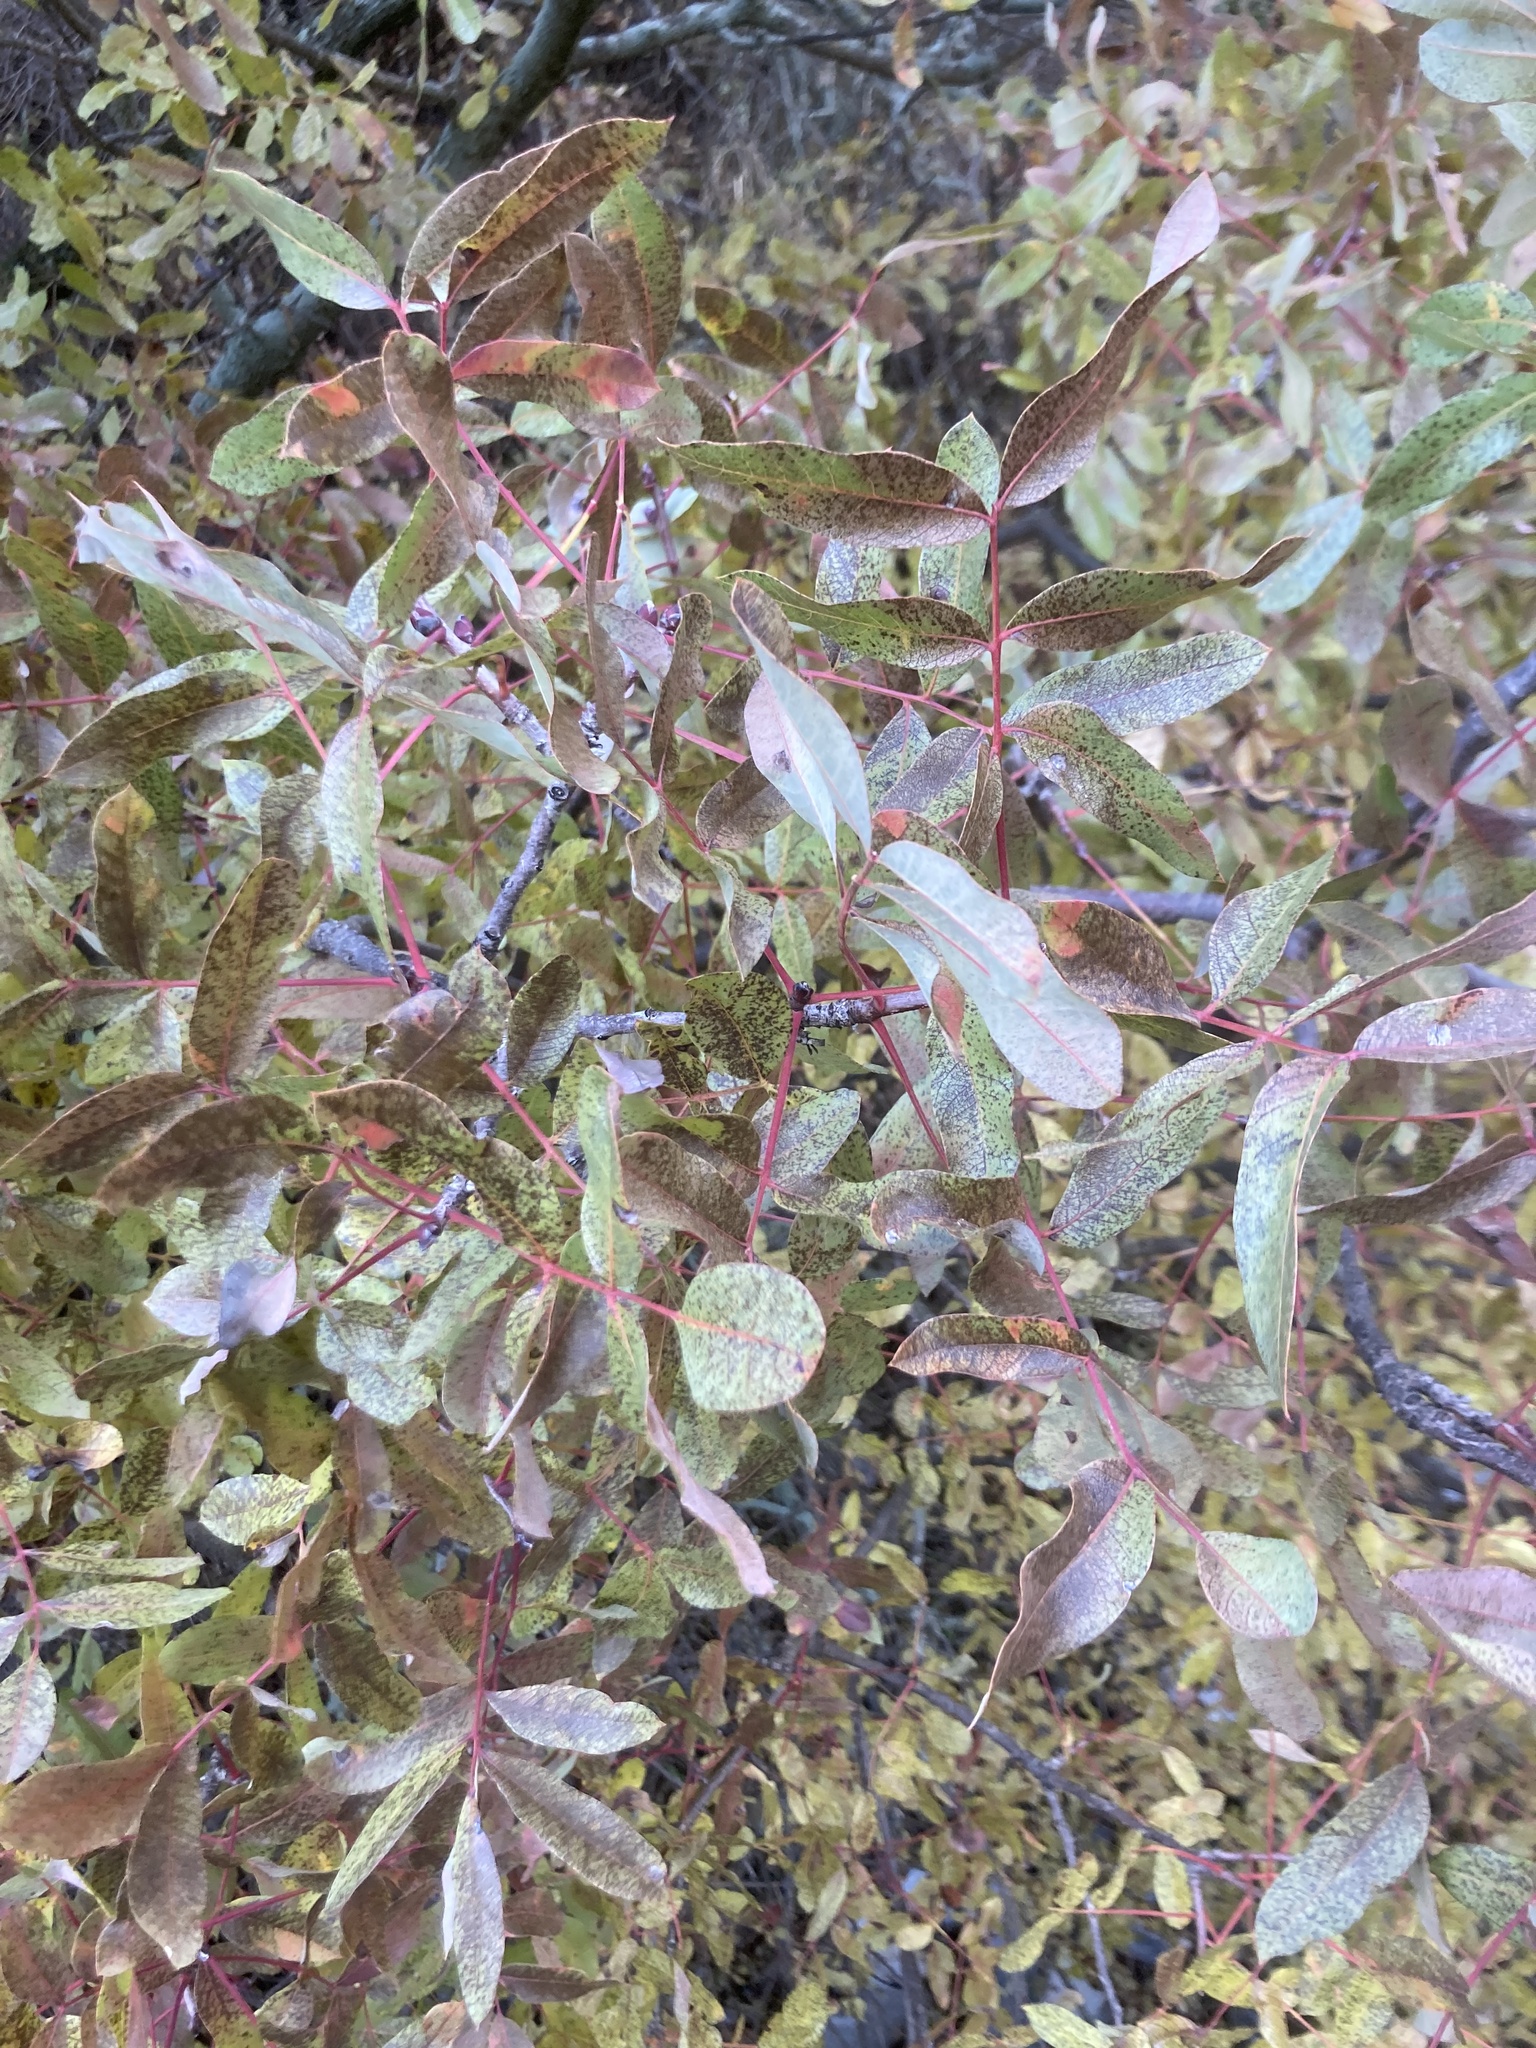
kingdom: Plantae
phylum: Tracheophyta
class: Magnoliopsida
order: Sapindales
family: Anacardiaceae
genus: Pistacia
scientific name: Pistacia terebinthus
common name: Terebinth
